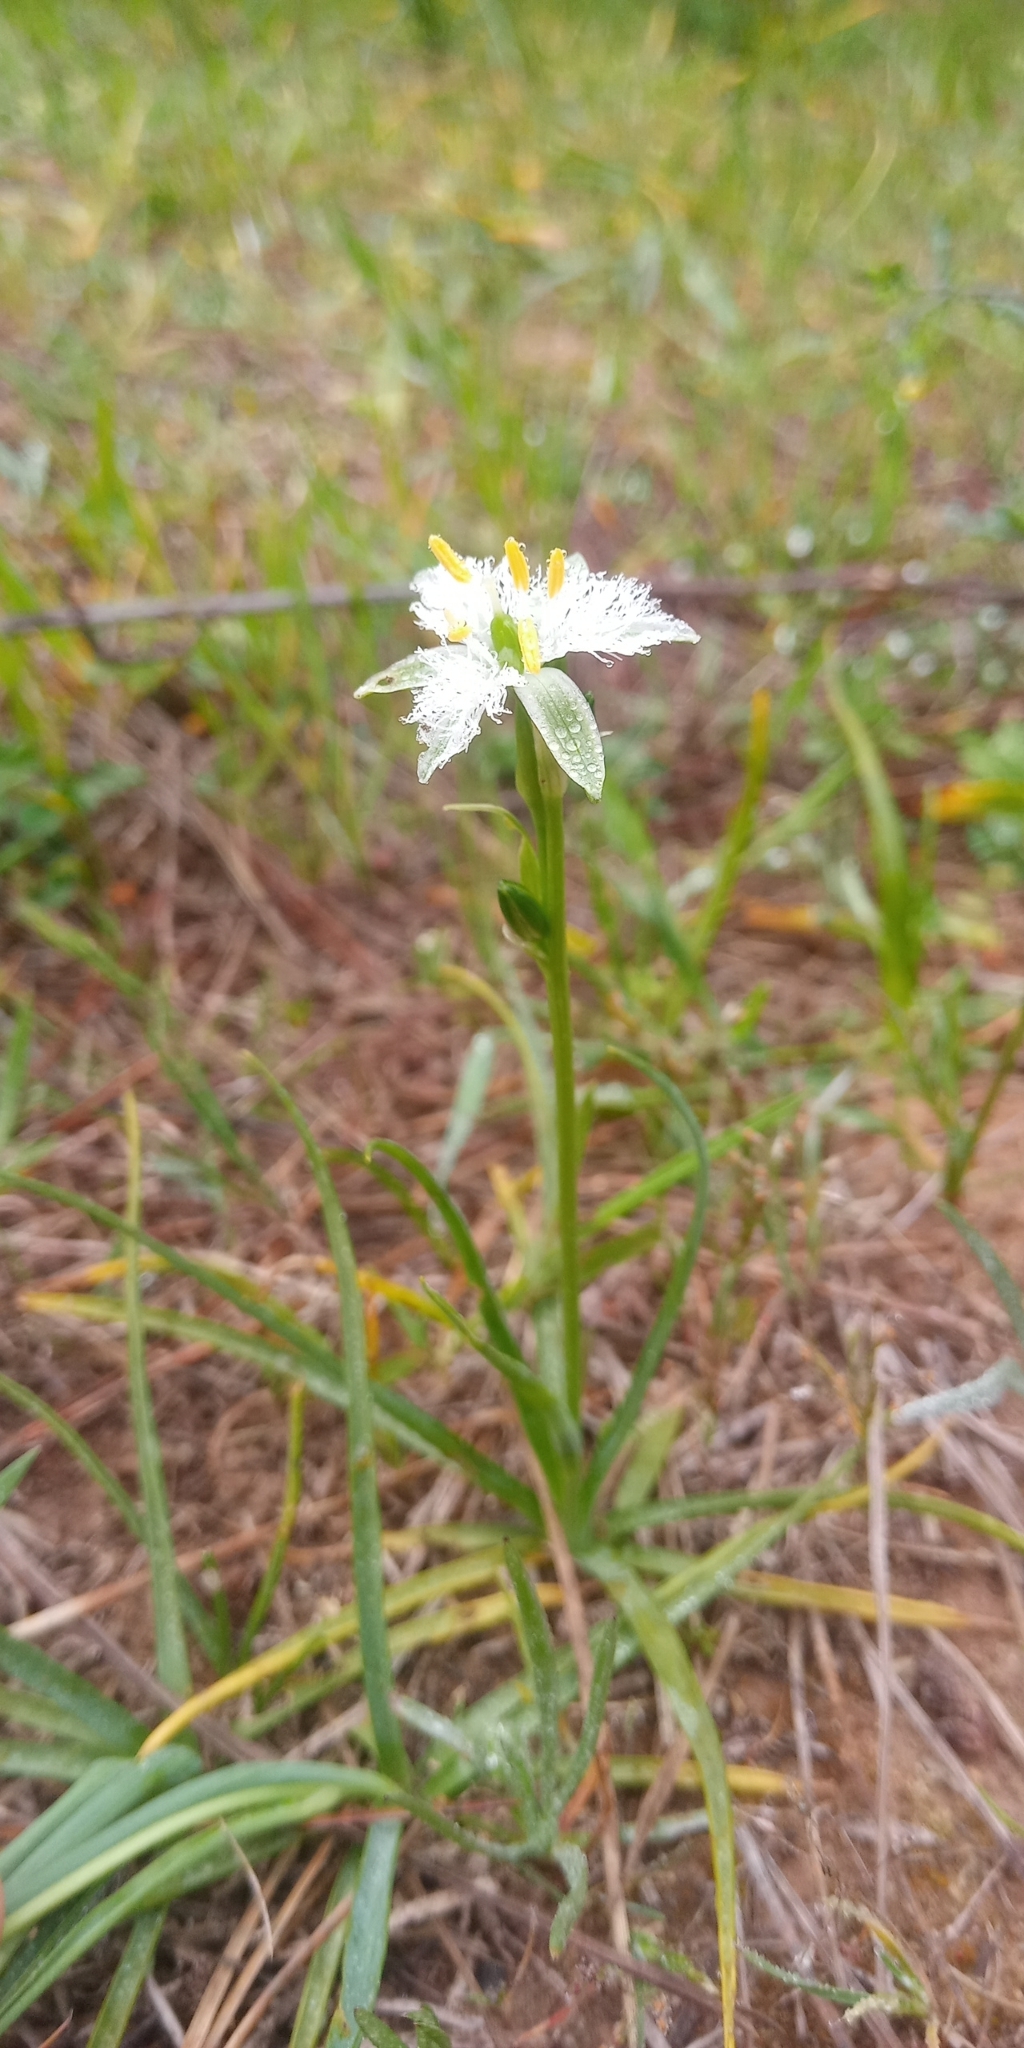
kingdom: Plantae
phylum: Tracheophyta
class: Liliopsida
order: Asparagales
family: Asparagaceae
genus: Trichopetalum
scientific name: Trichopetalum plumosum
